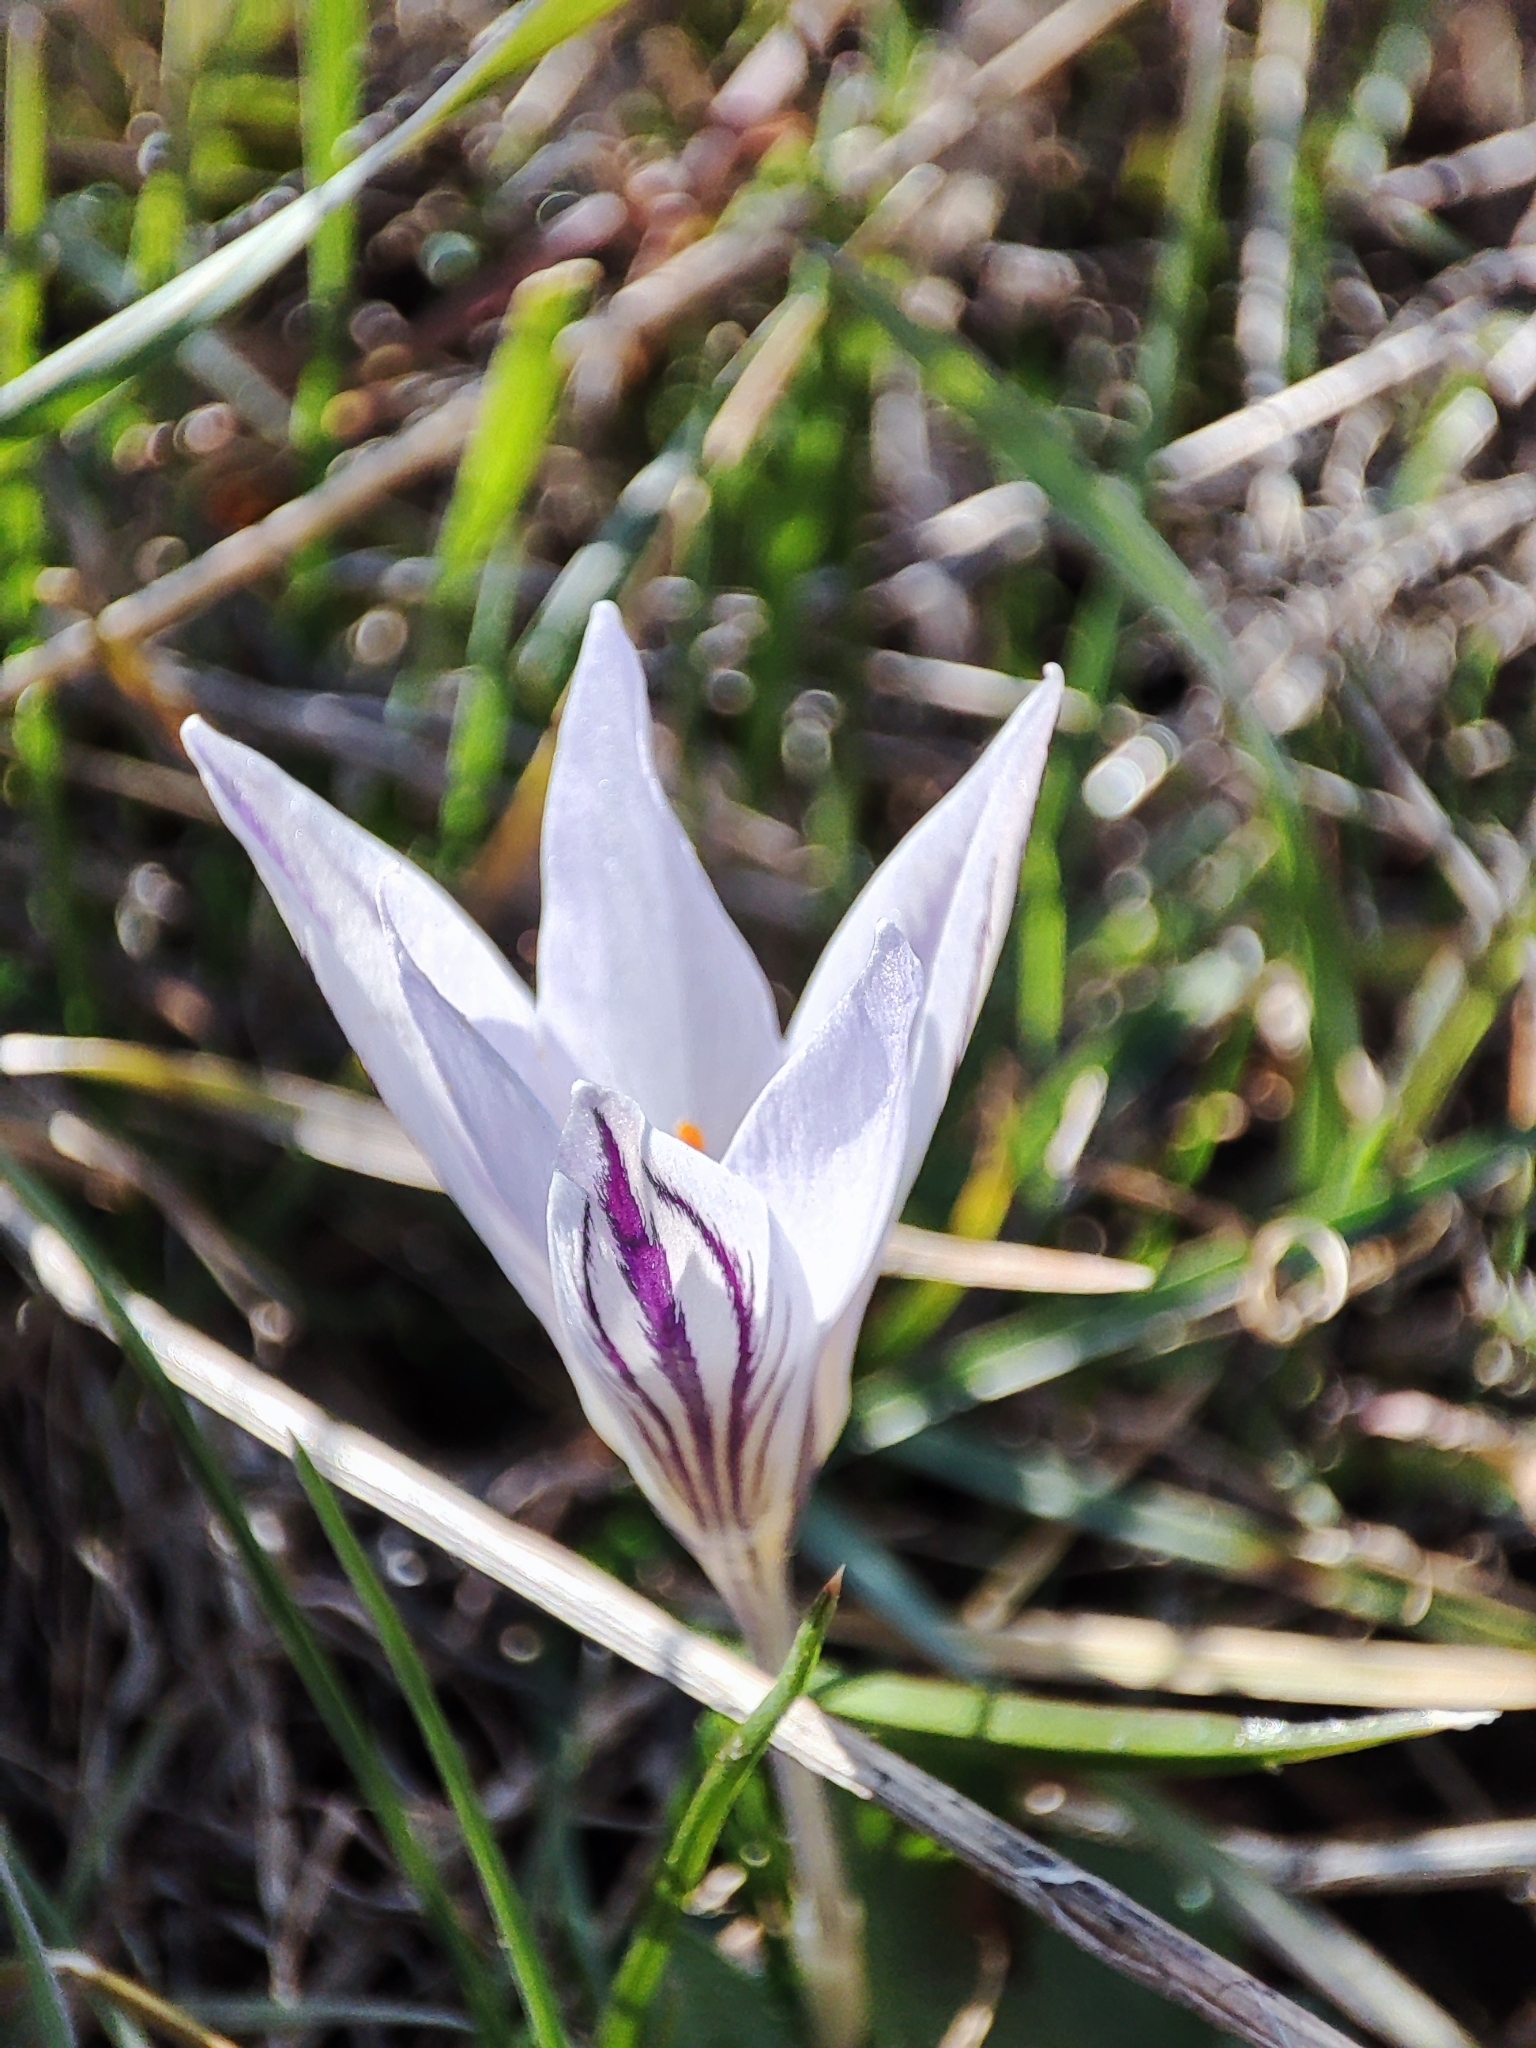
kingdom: Plantae
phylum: Tracheophyta
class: Liliopsida
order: Asparagales
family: Iridaceae
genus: Crocus
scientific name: Crocus reticulatus
